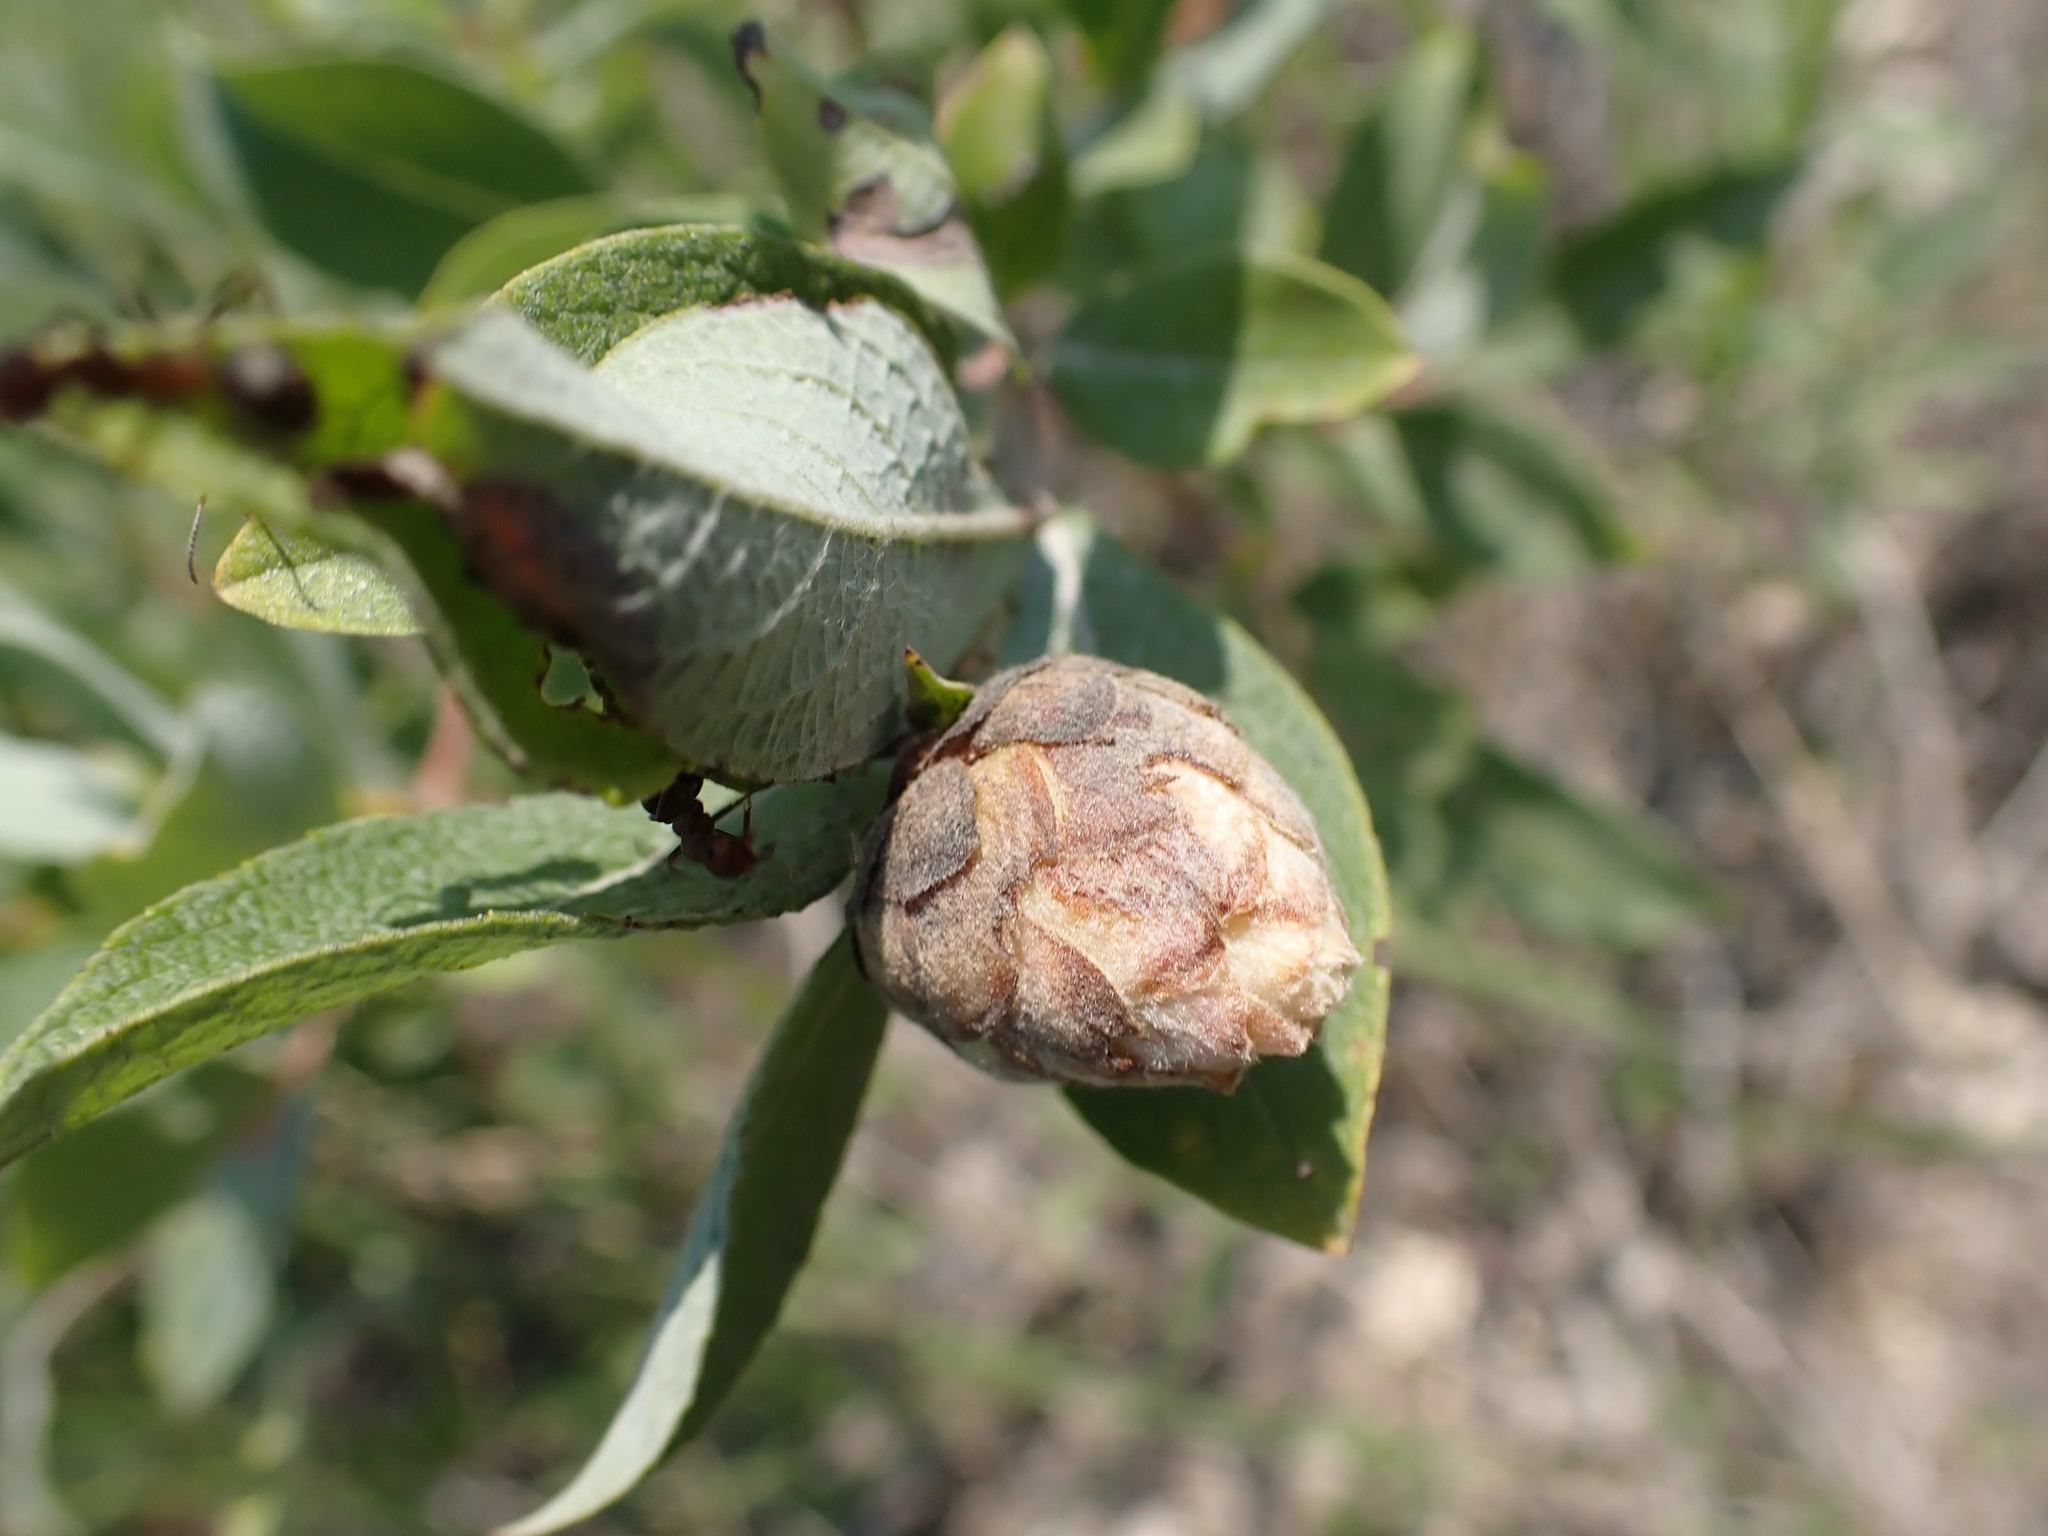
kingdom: Animalia
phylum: Arthropoda
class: Insecta
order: Diptera
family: Cecidomyiidae
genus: Rabdophaga
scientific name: Rabdophaga strobiloides
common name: Willow pinecone gall midge
